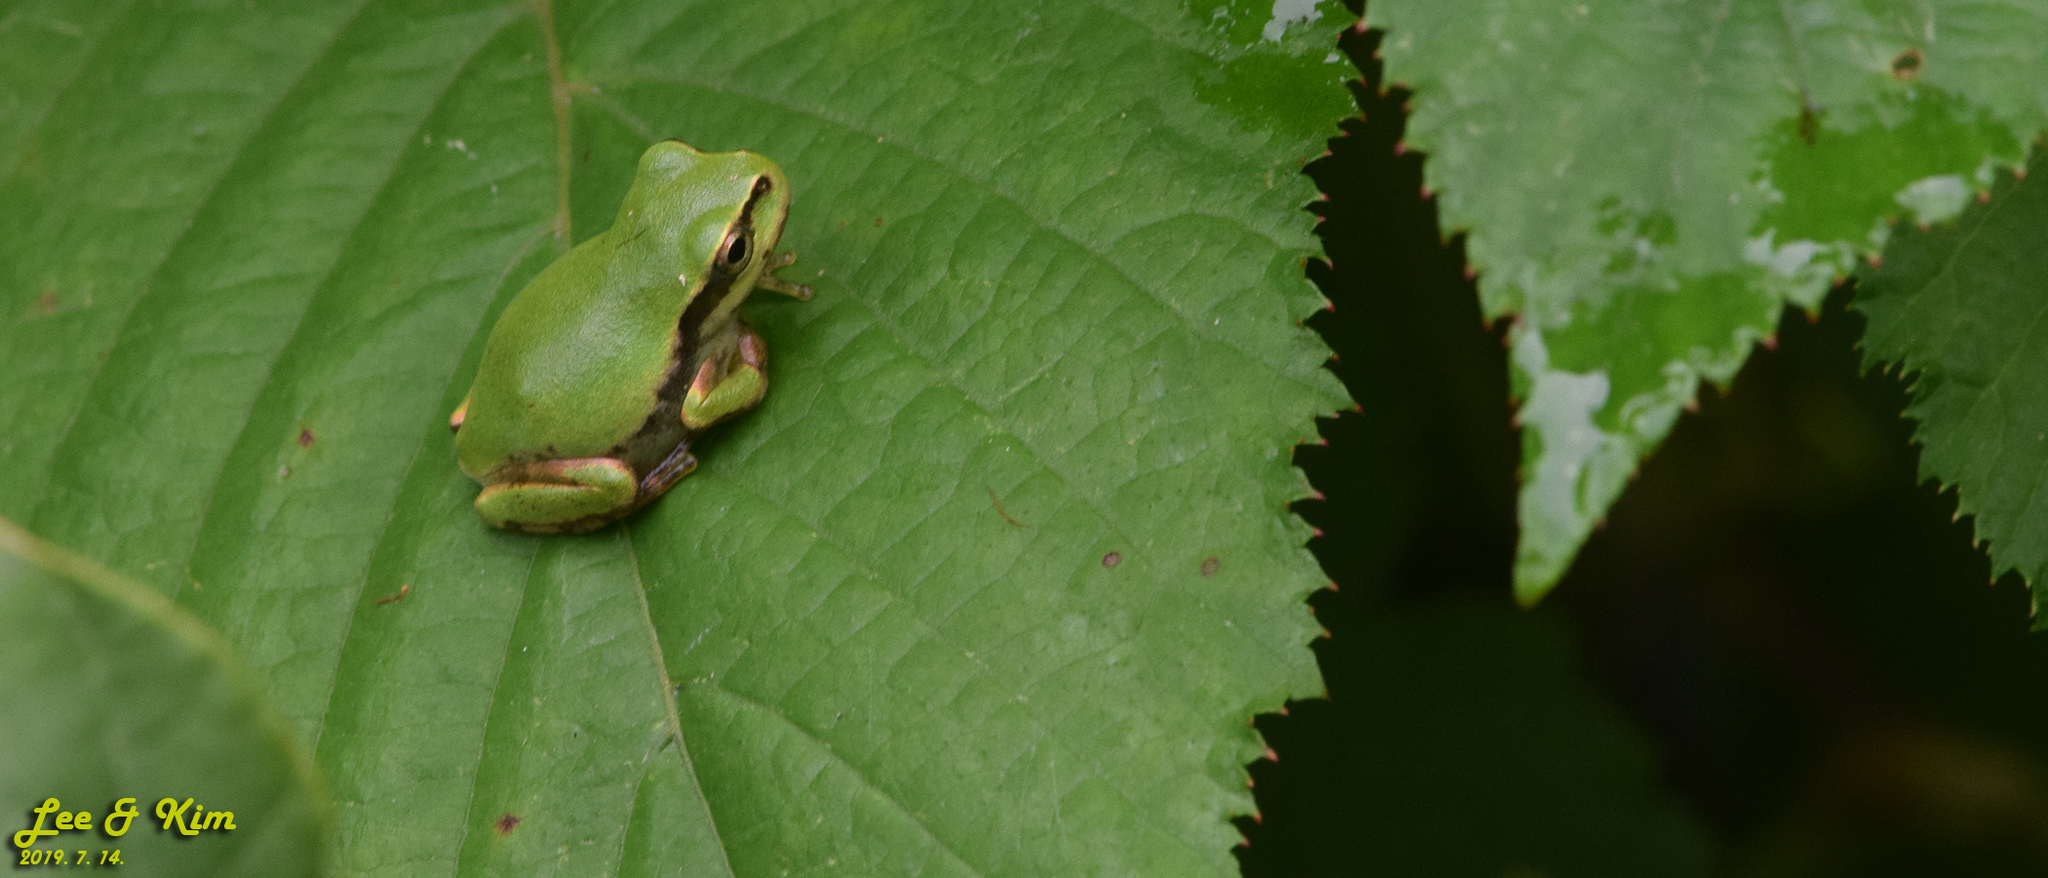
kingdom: Animalia
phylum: Chordata
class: Amphibia
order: Anura
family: Hylidae
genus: Dryophytes
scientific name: Dryophytes japonicus
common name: Japanese treefrog
